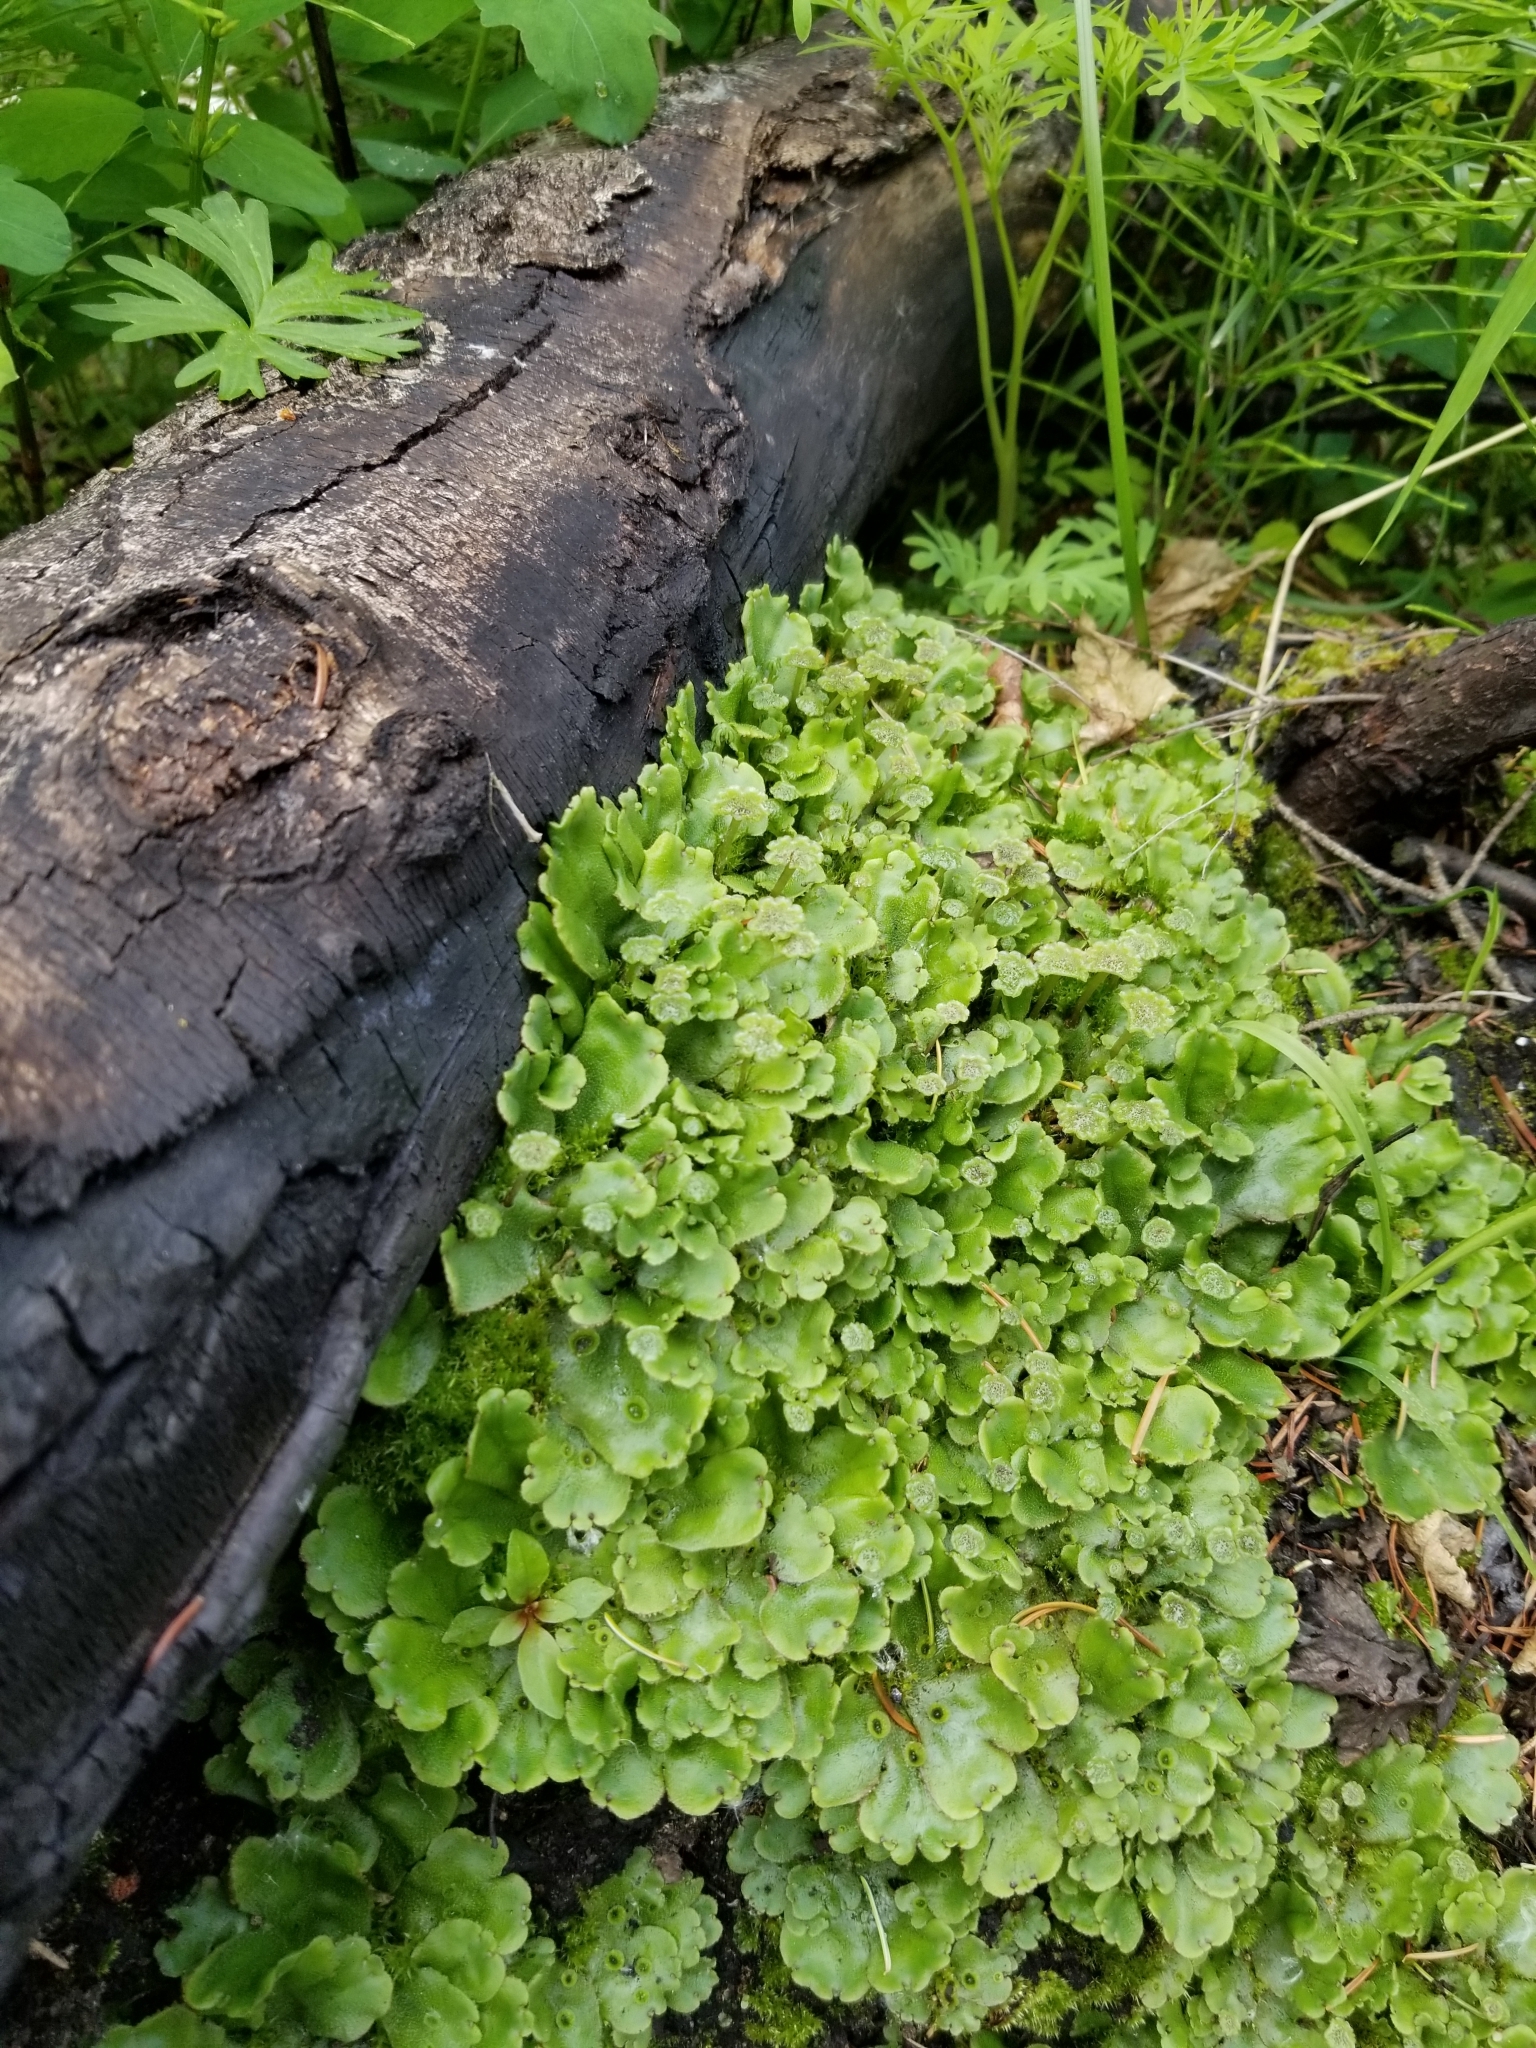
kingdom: Plantae
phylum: Marchantiophyta
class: Marchantiopsida
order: Marchantiales
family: Marchantiaceae
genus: Marchantia
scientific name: Marchantia polymorpha
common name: Common liverwort
